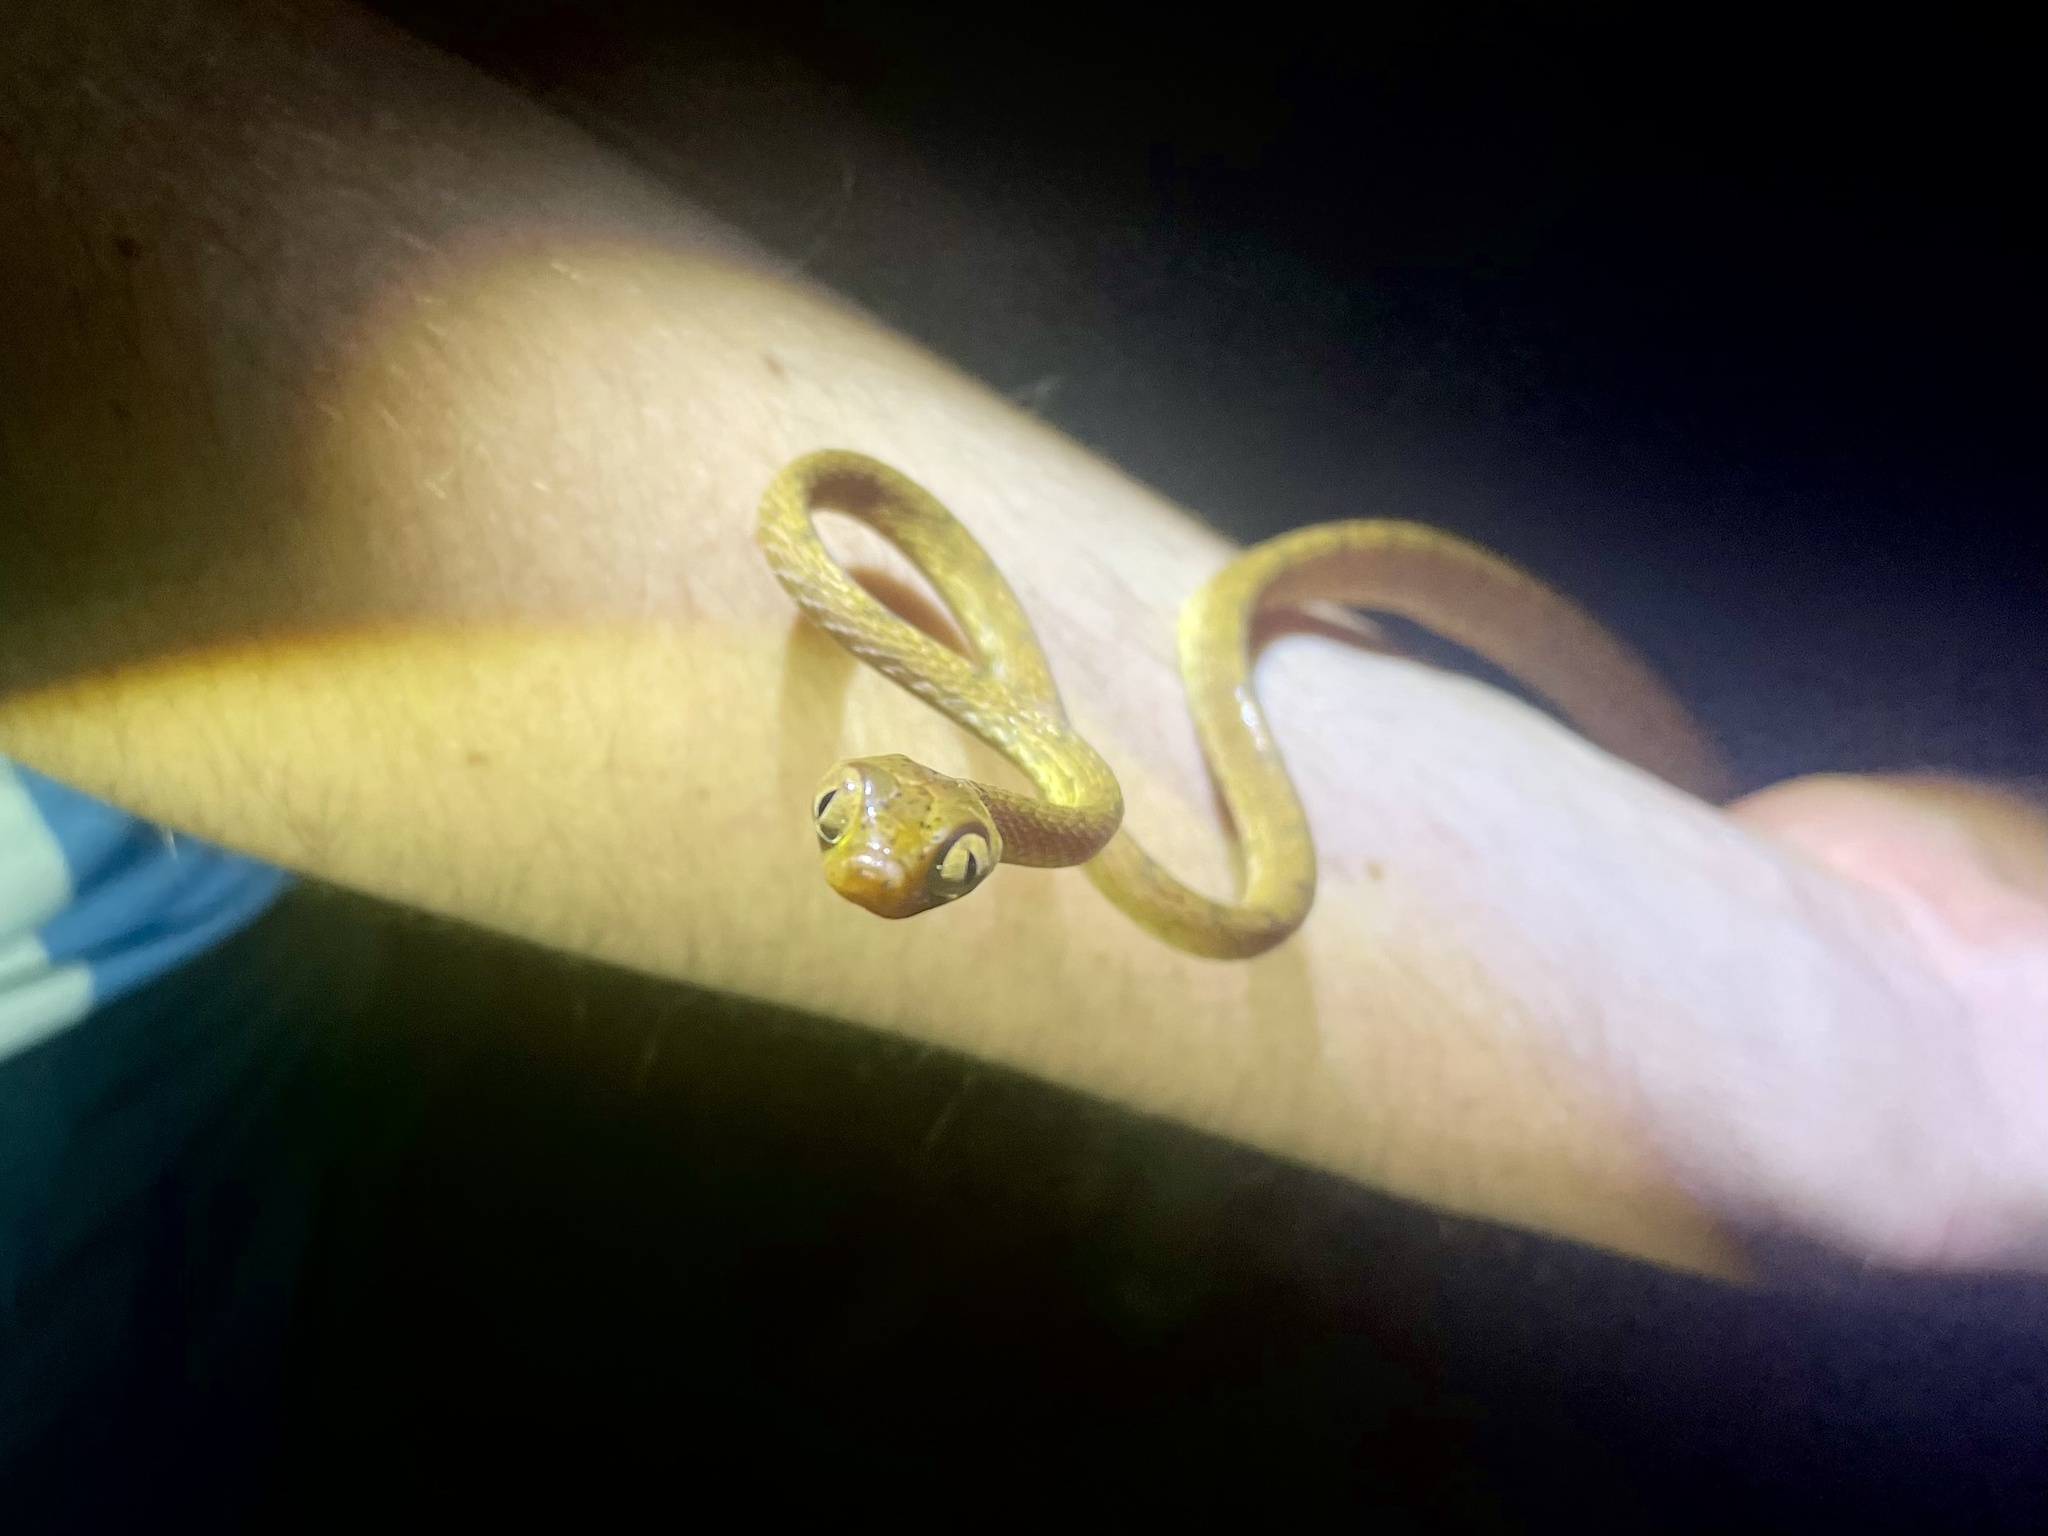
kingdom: Animalia
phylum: Chordata
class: Squamata
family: Colubridae
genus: Imantodes
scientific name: Imantodes inornatus
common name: Western tree snake
